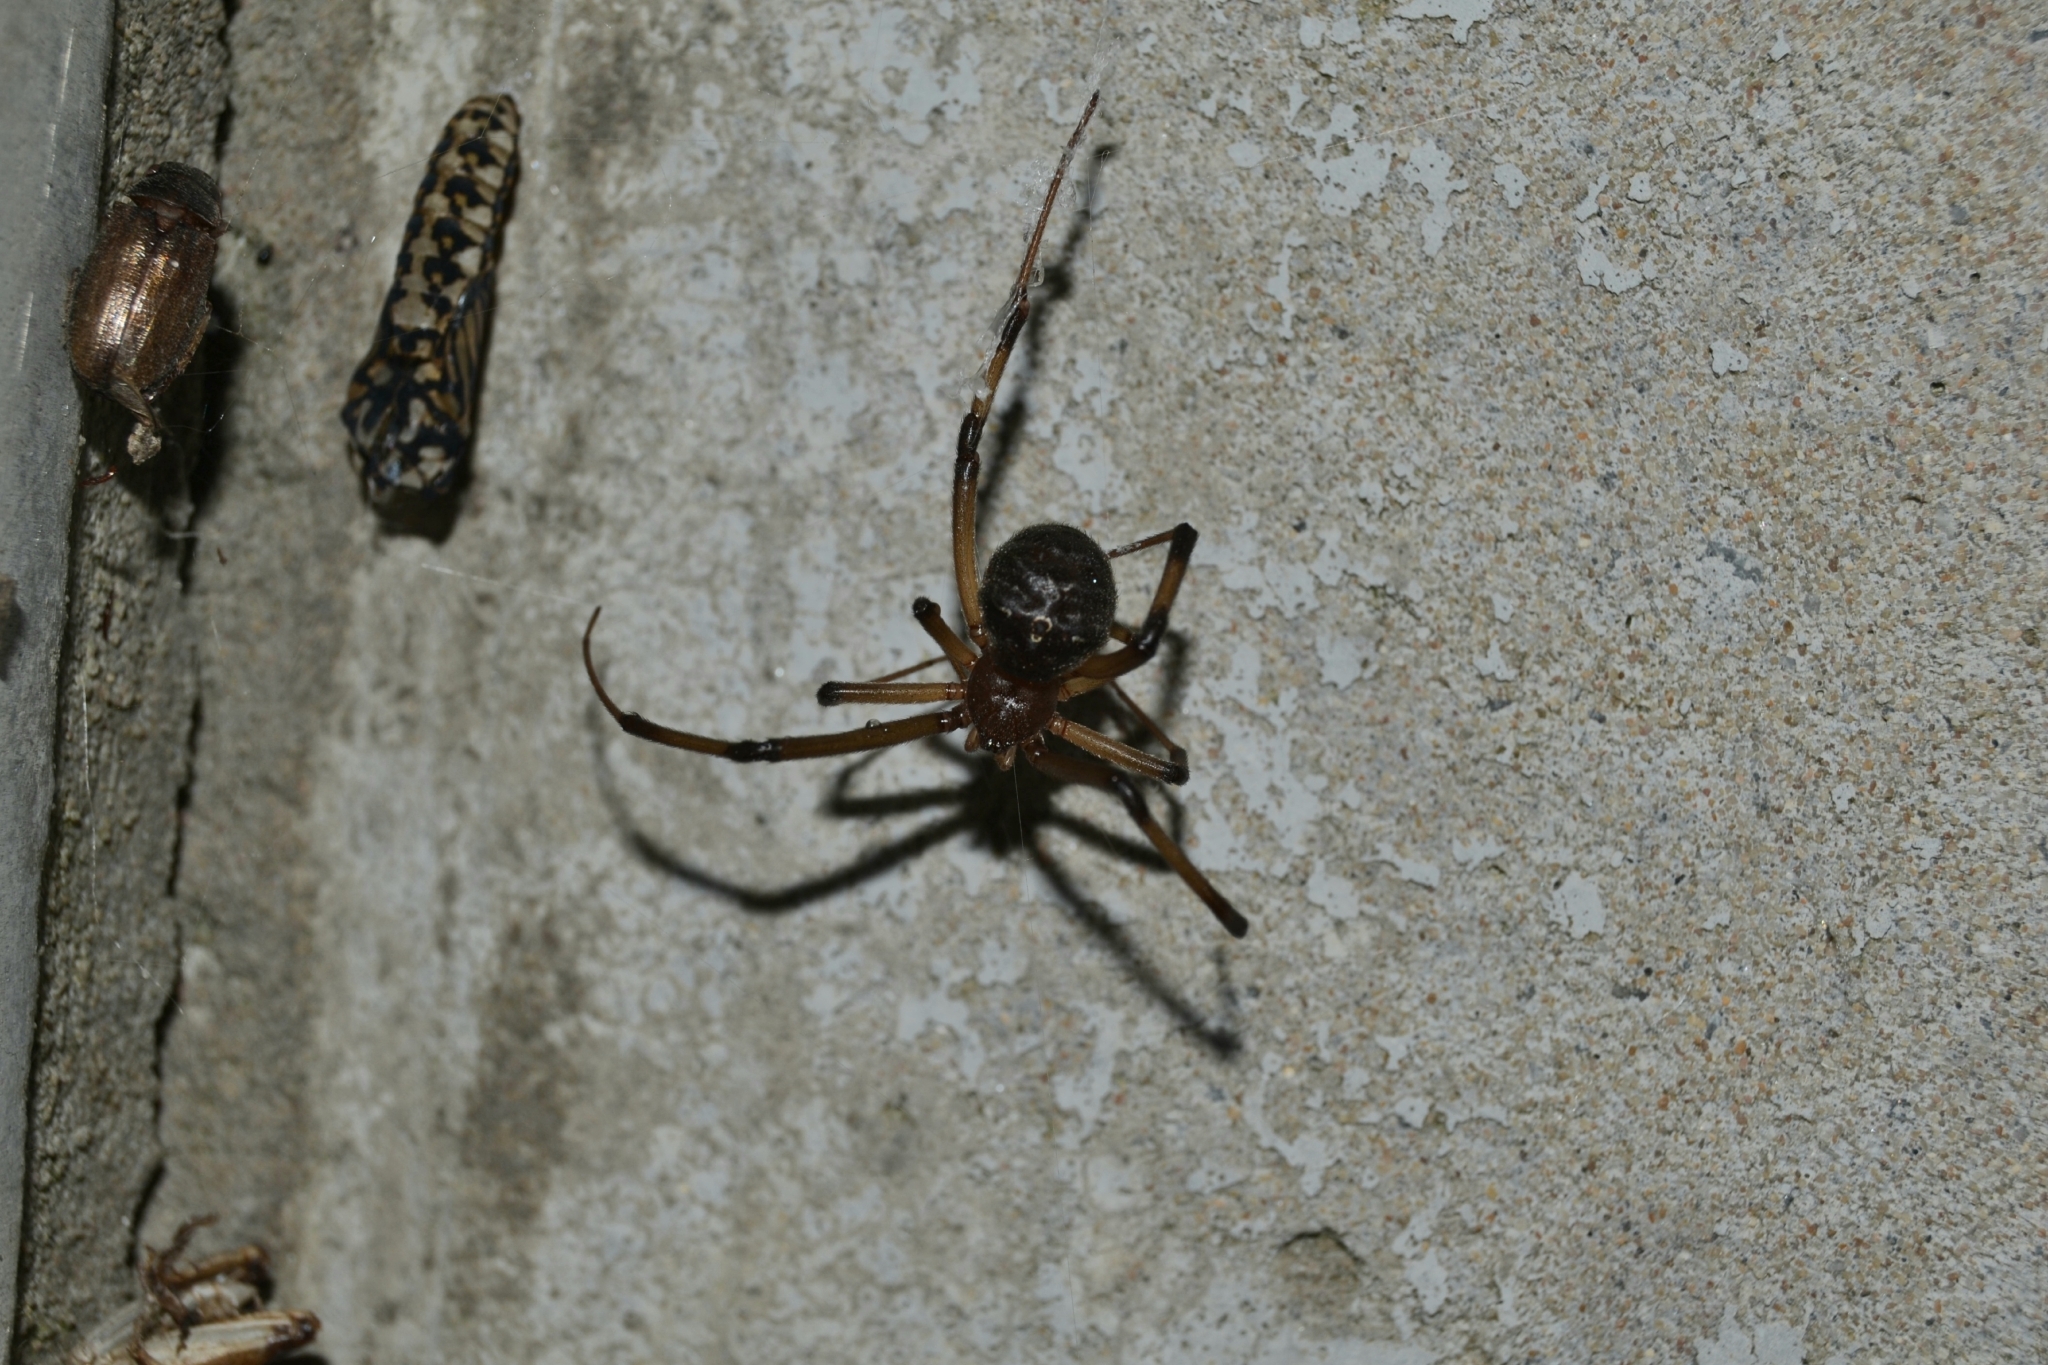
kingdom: Animalia
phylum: Arthropoda
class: Arachnida
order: Araneae
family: Theridiidae
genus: Latrodectus
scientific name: Latrodectus geometricus
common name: Brown widow spider
